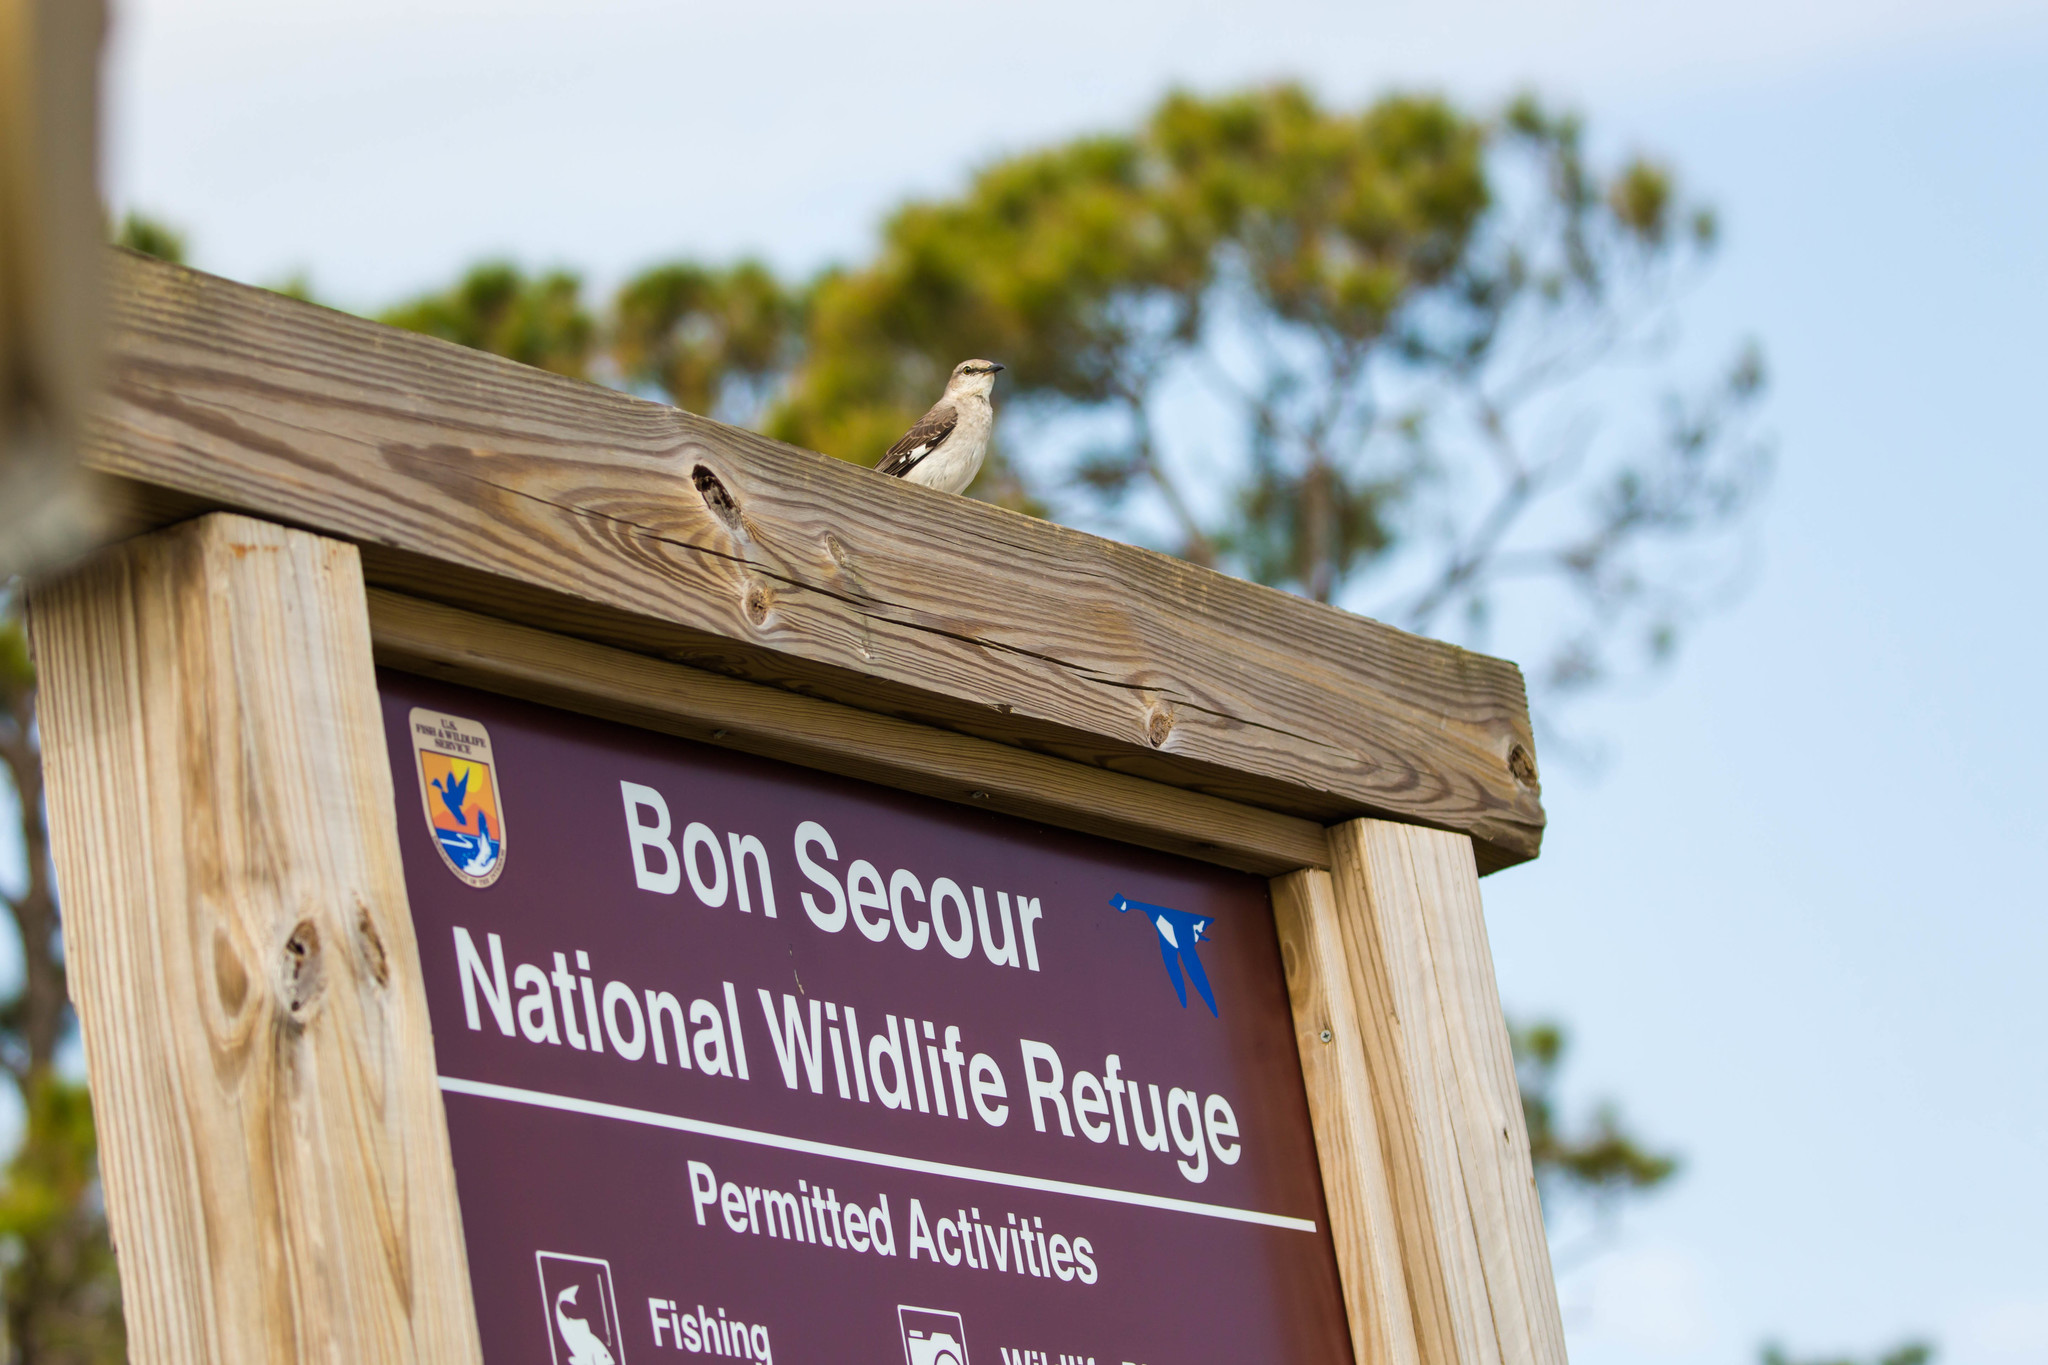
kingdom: Animalia
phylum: Chordata
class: Aves
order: Passeriformes
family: Mimidae
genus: Mimus
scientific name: Mimus polyglottos
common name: Northern mockingbird
